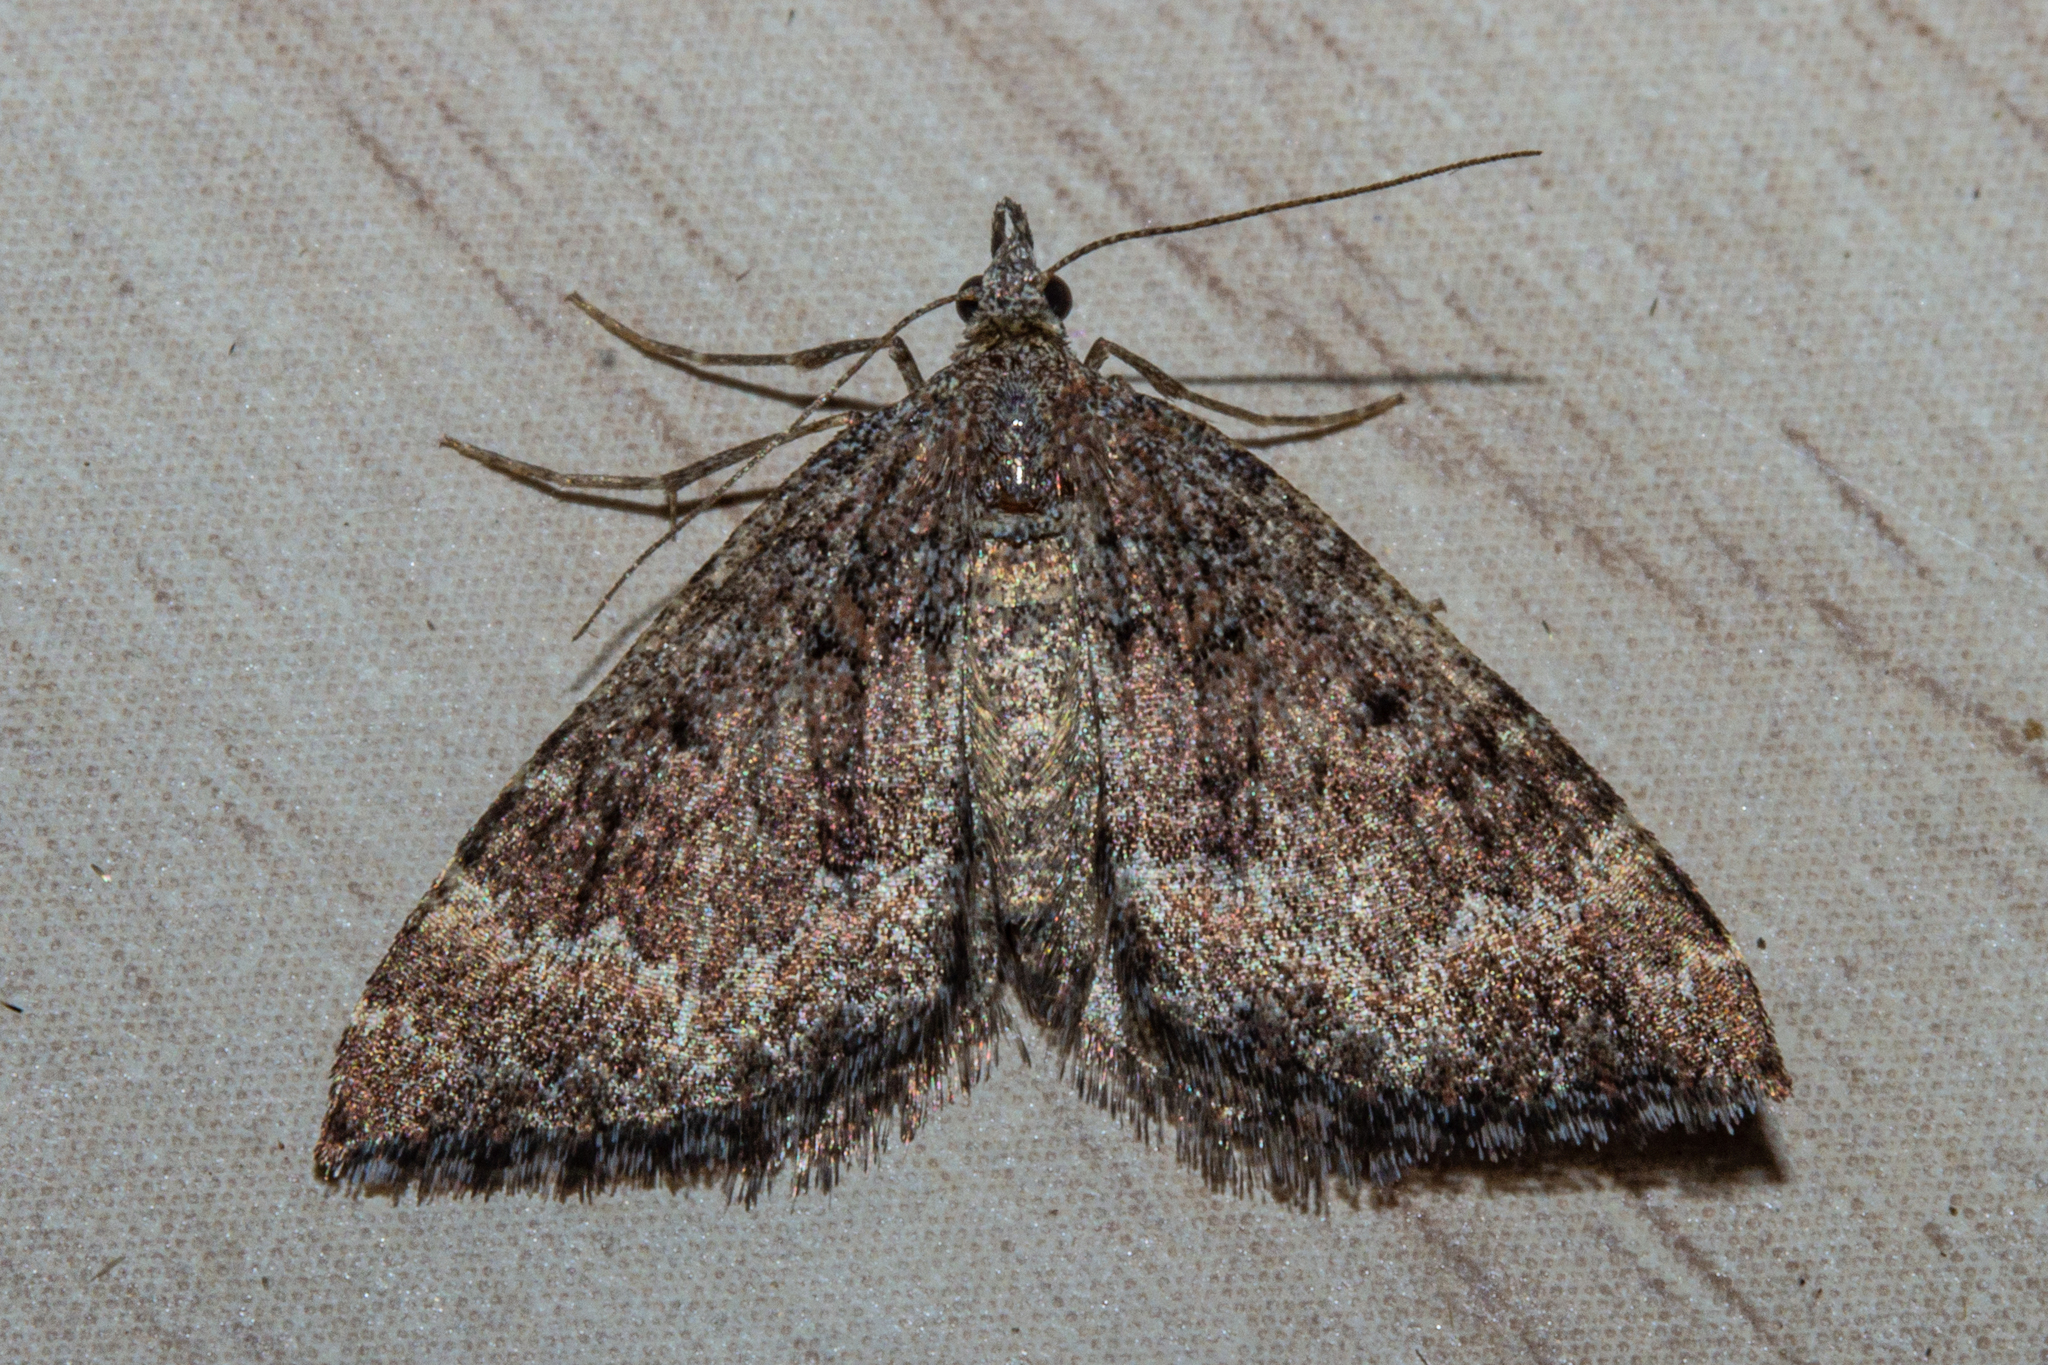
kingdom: Animalia
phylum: Arthropoda
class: Insecta
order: Lepidoptera
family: Geometridae
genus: Asaphodes
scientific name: Asaphodes ida
